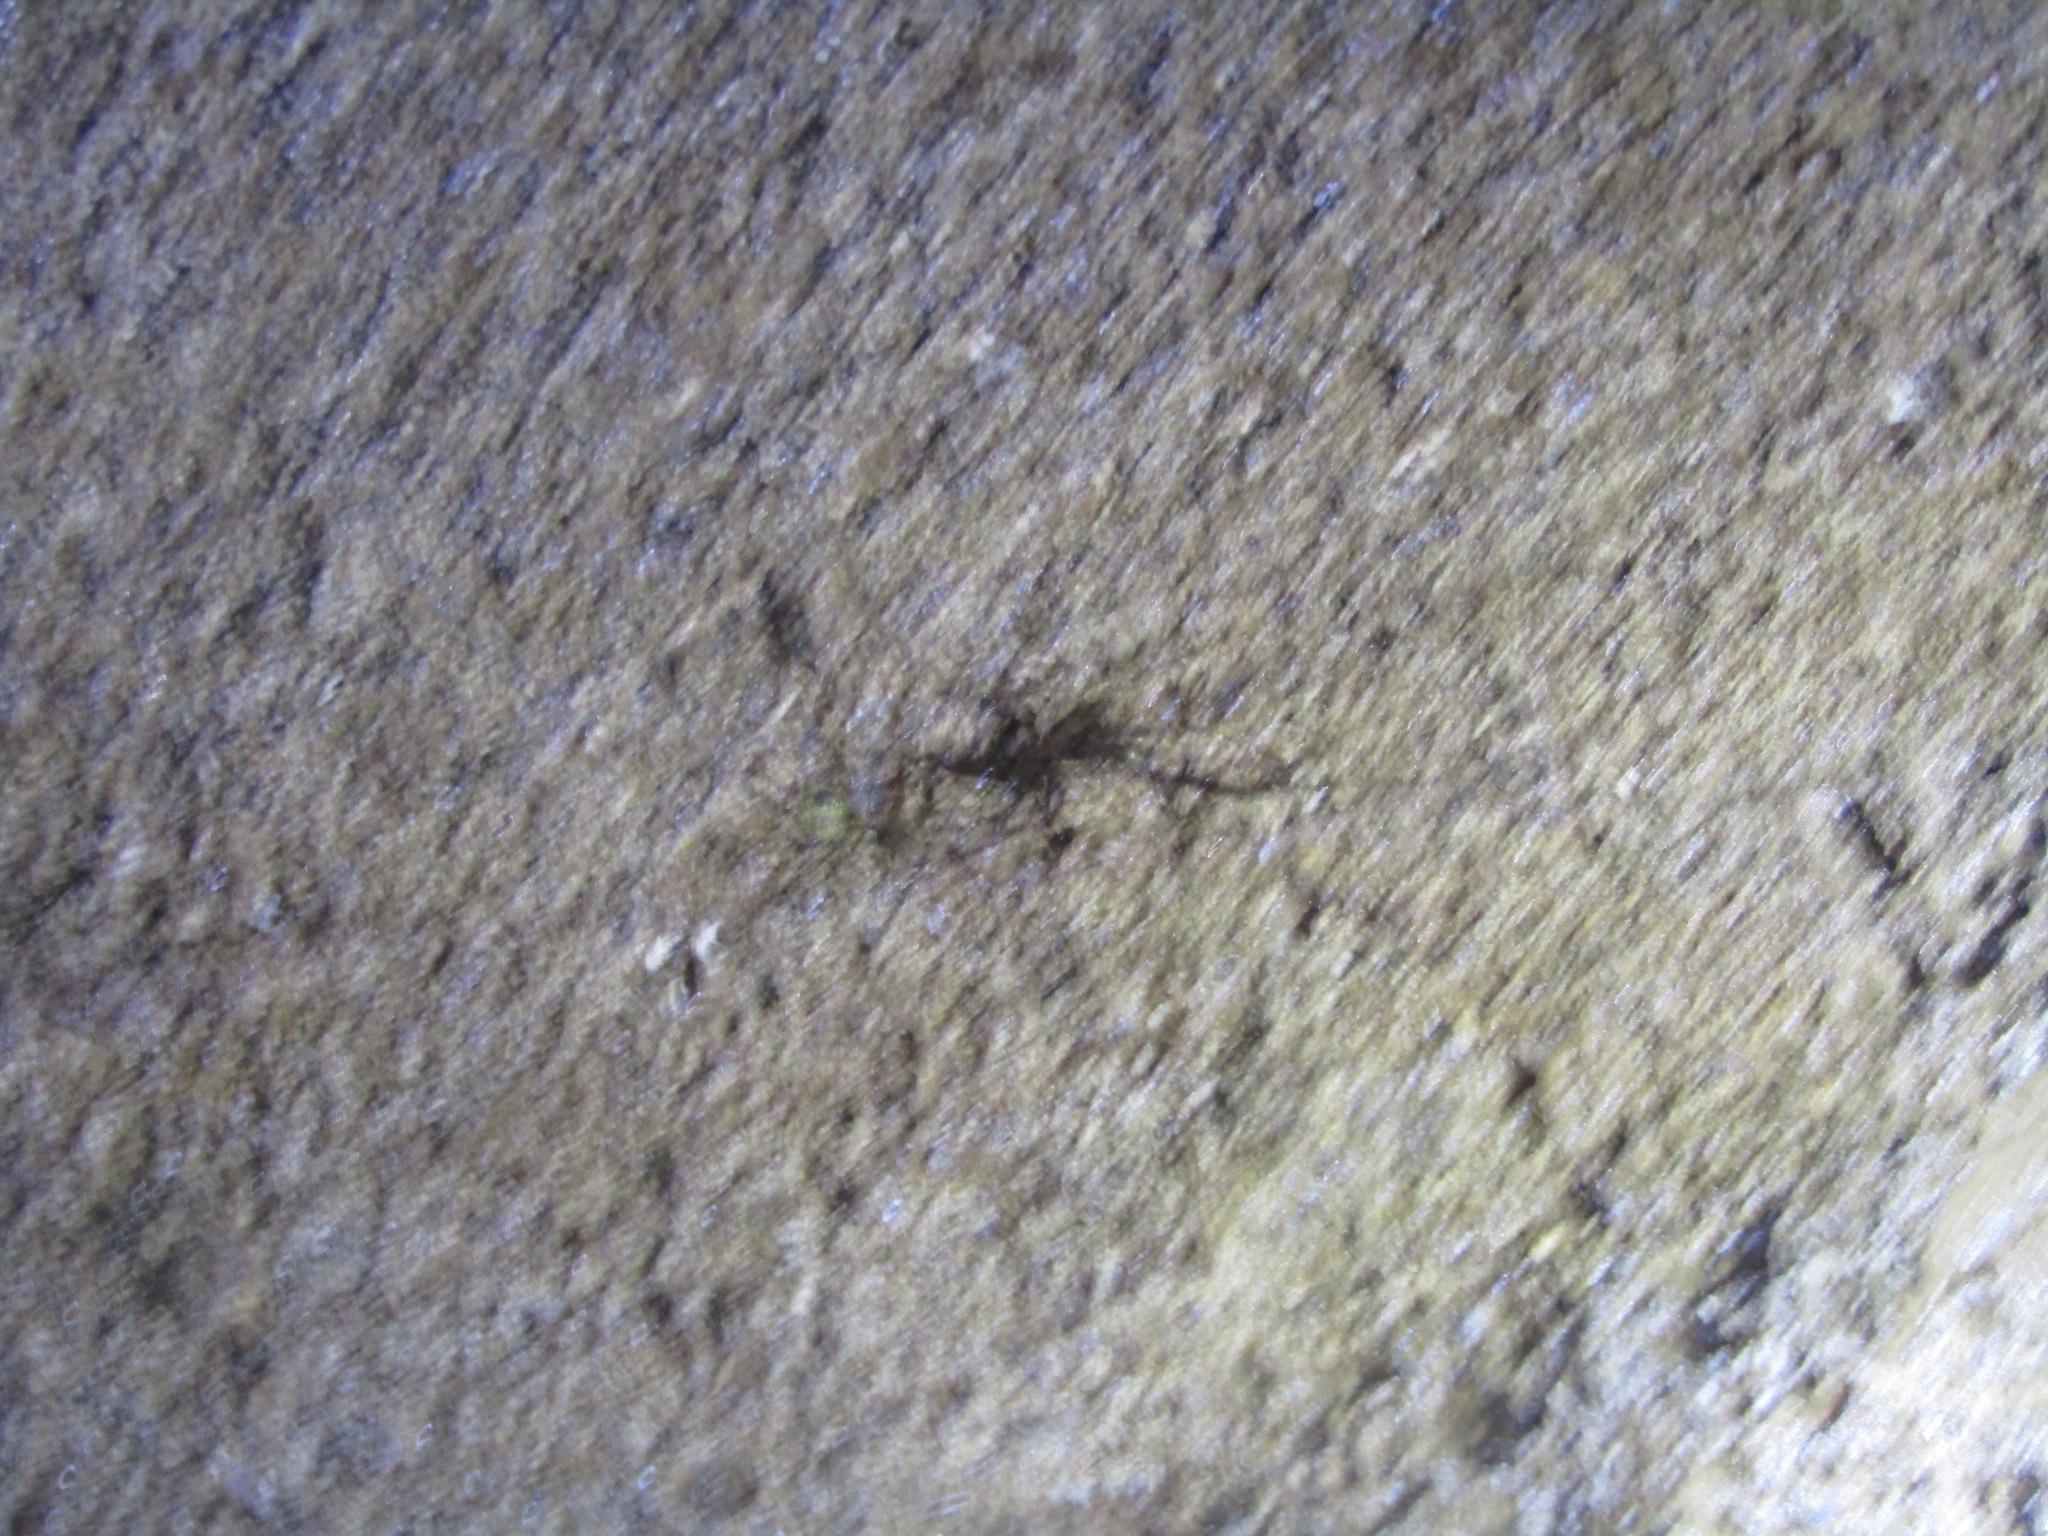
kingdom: Animalia
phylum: Arthropoda
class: Arachnida
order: Araneae
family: Tetragnathidae
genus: Meta
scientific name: Meta ovalis
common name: Eastern cave long-jawed spider
